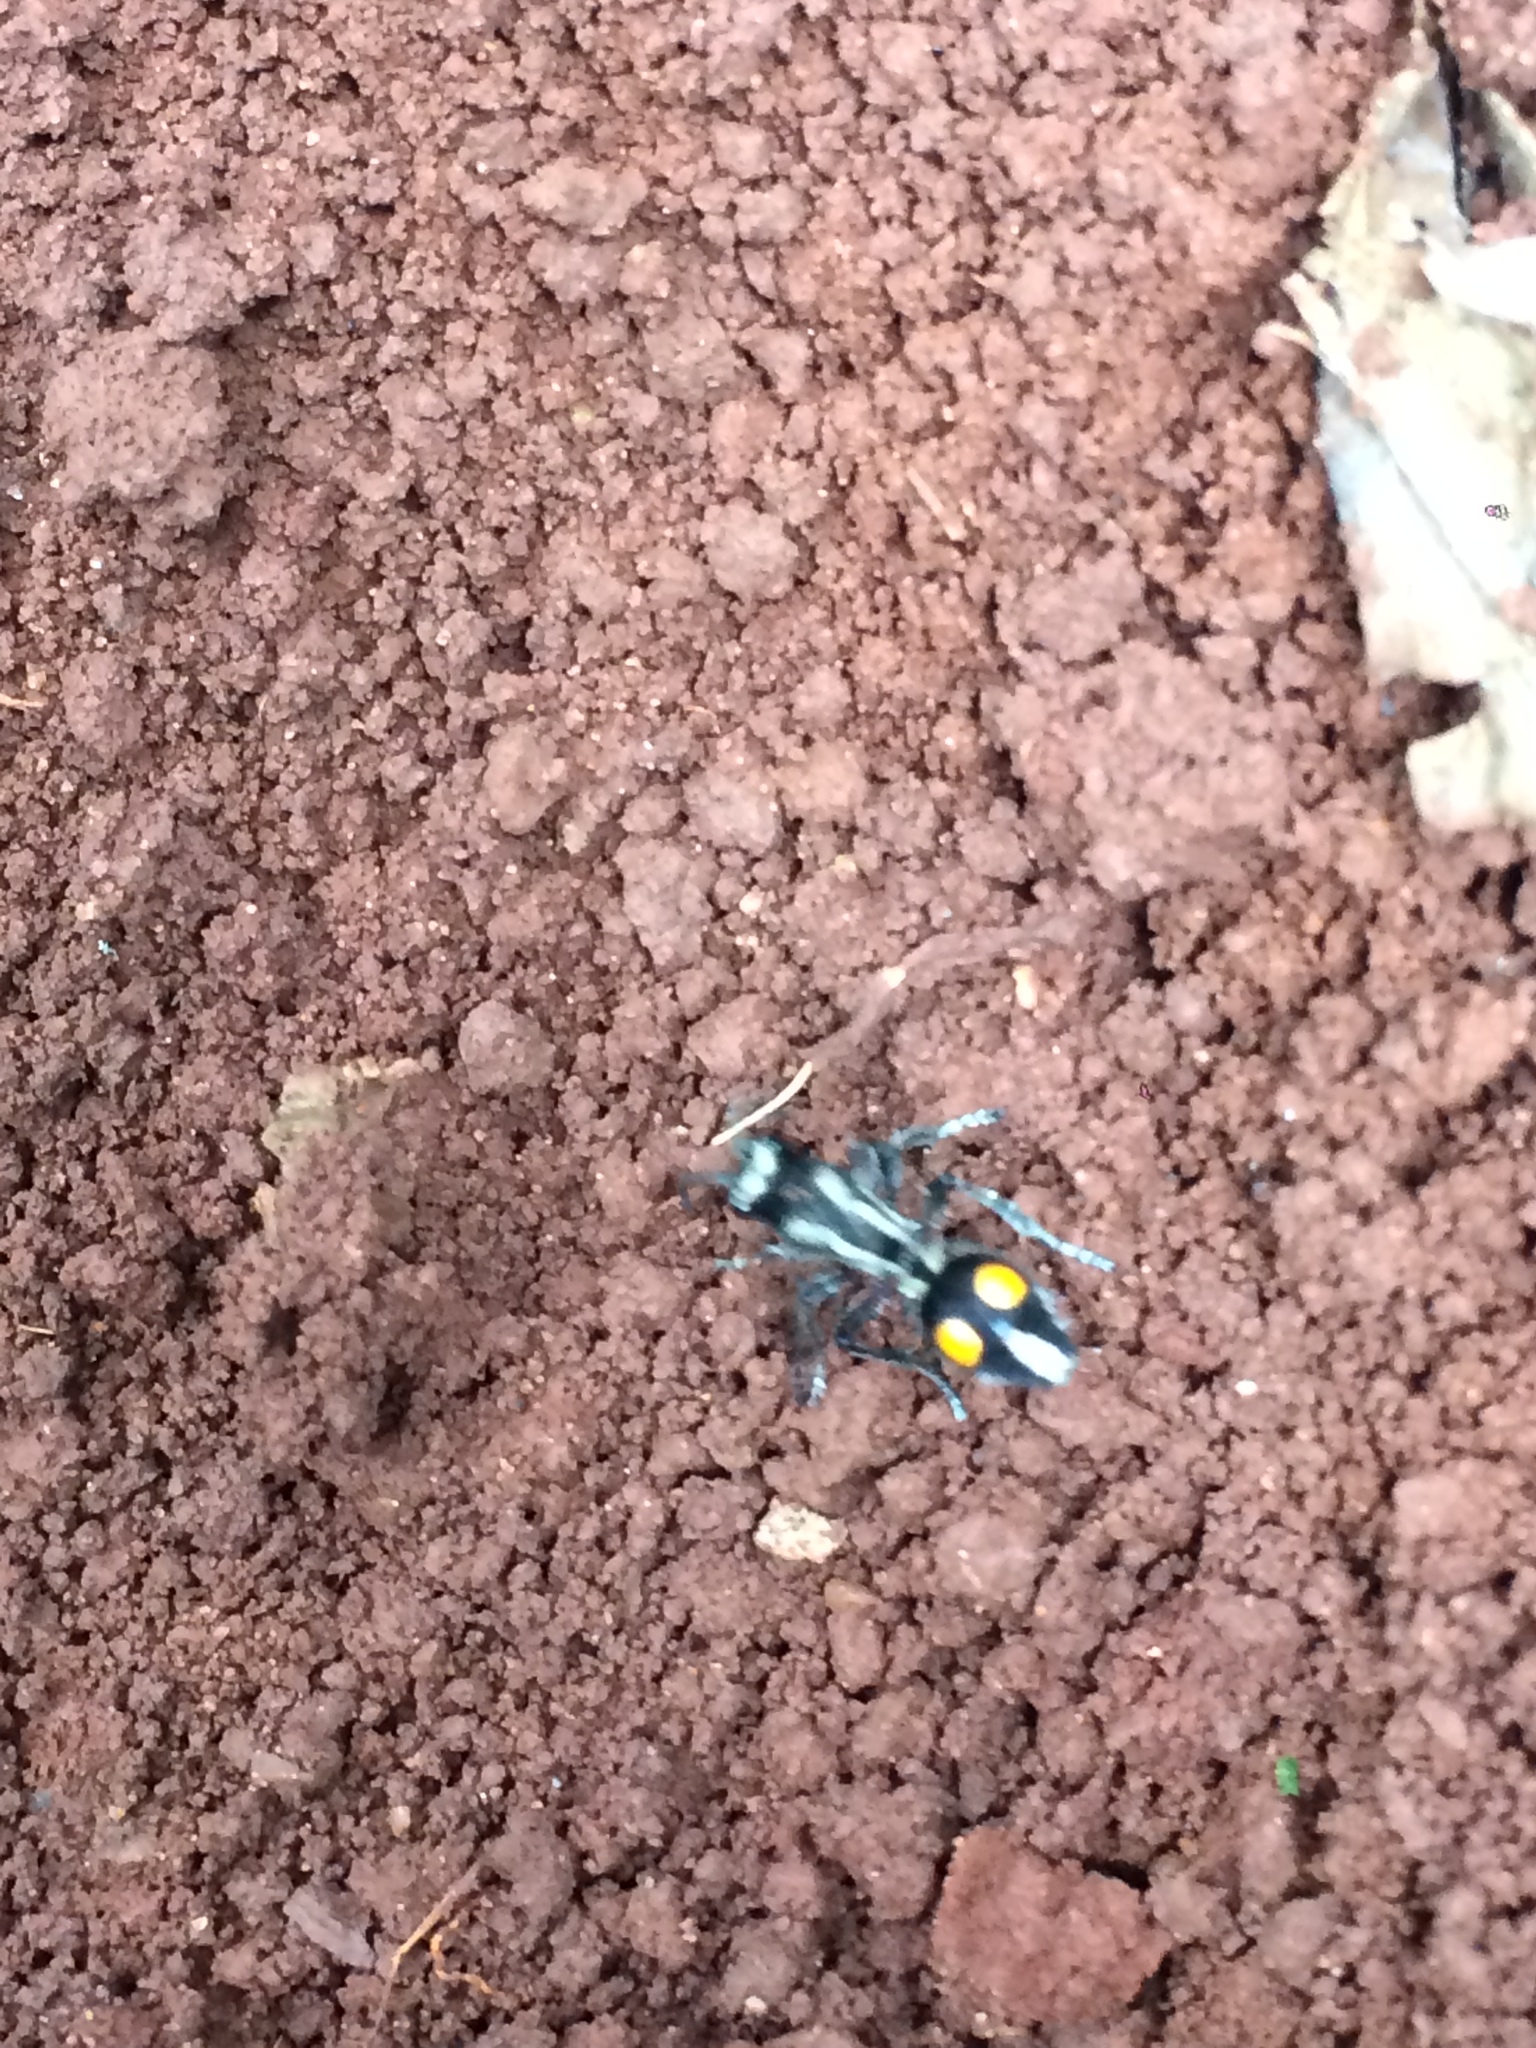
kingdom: Animalia
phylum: Arthropoda
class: Insecta
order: Hymenoptera
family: Mutillidae
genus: Traumatomutilla
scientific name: Traumatomutilla diophthalma
